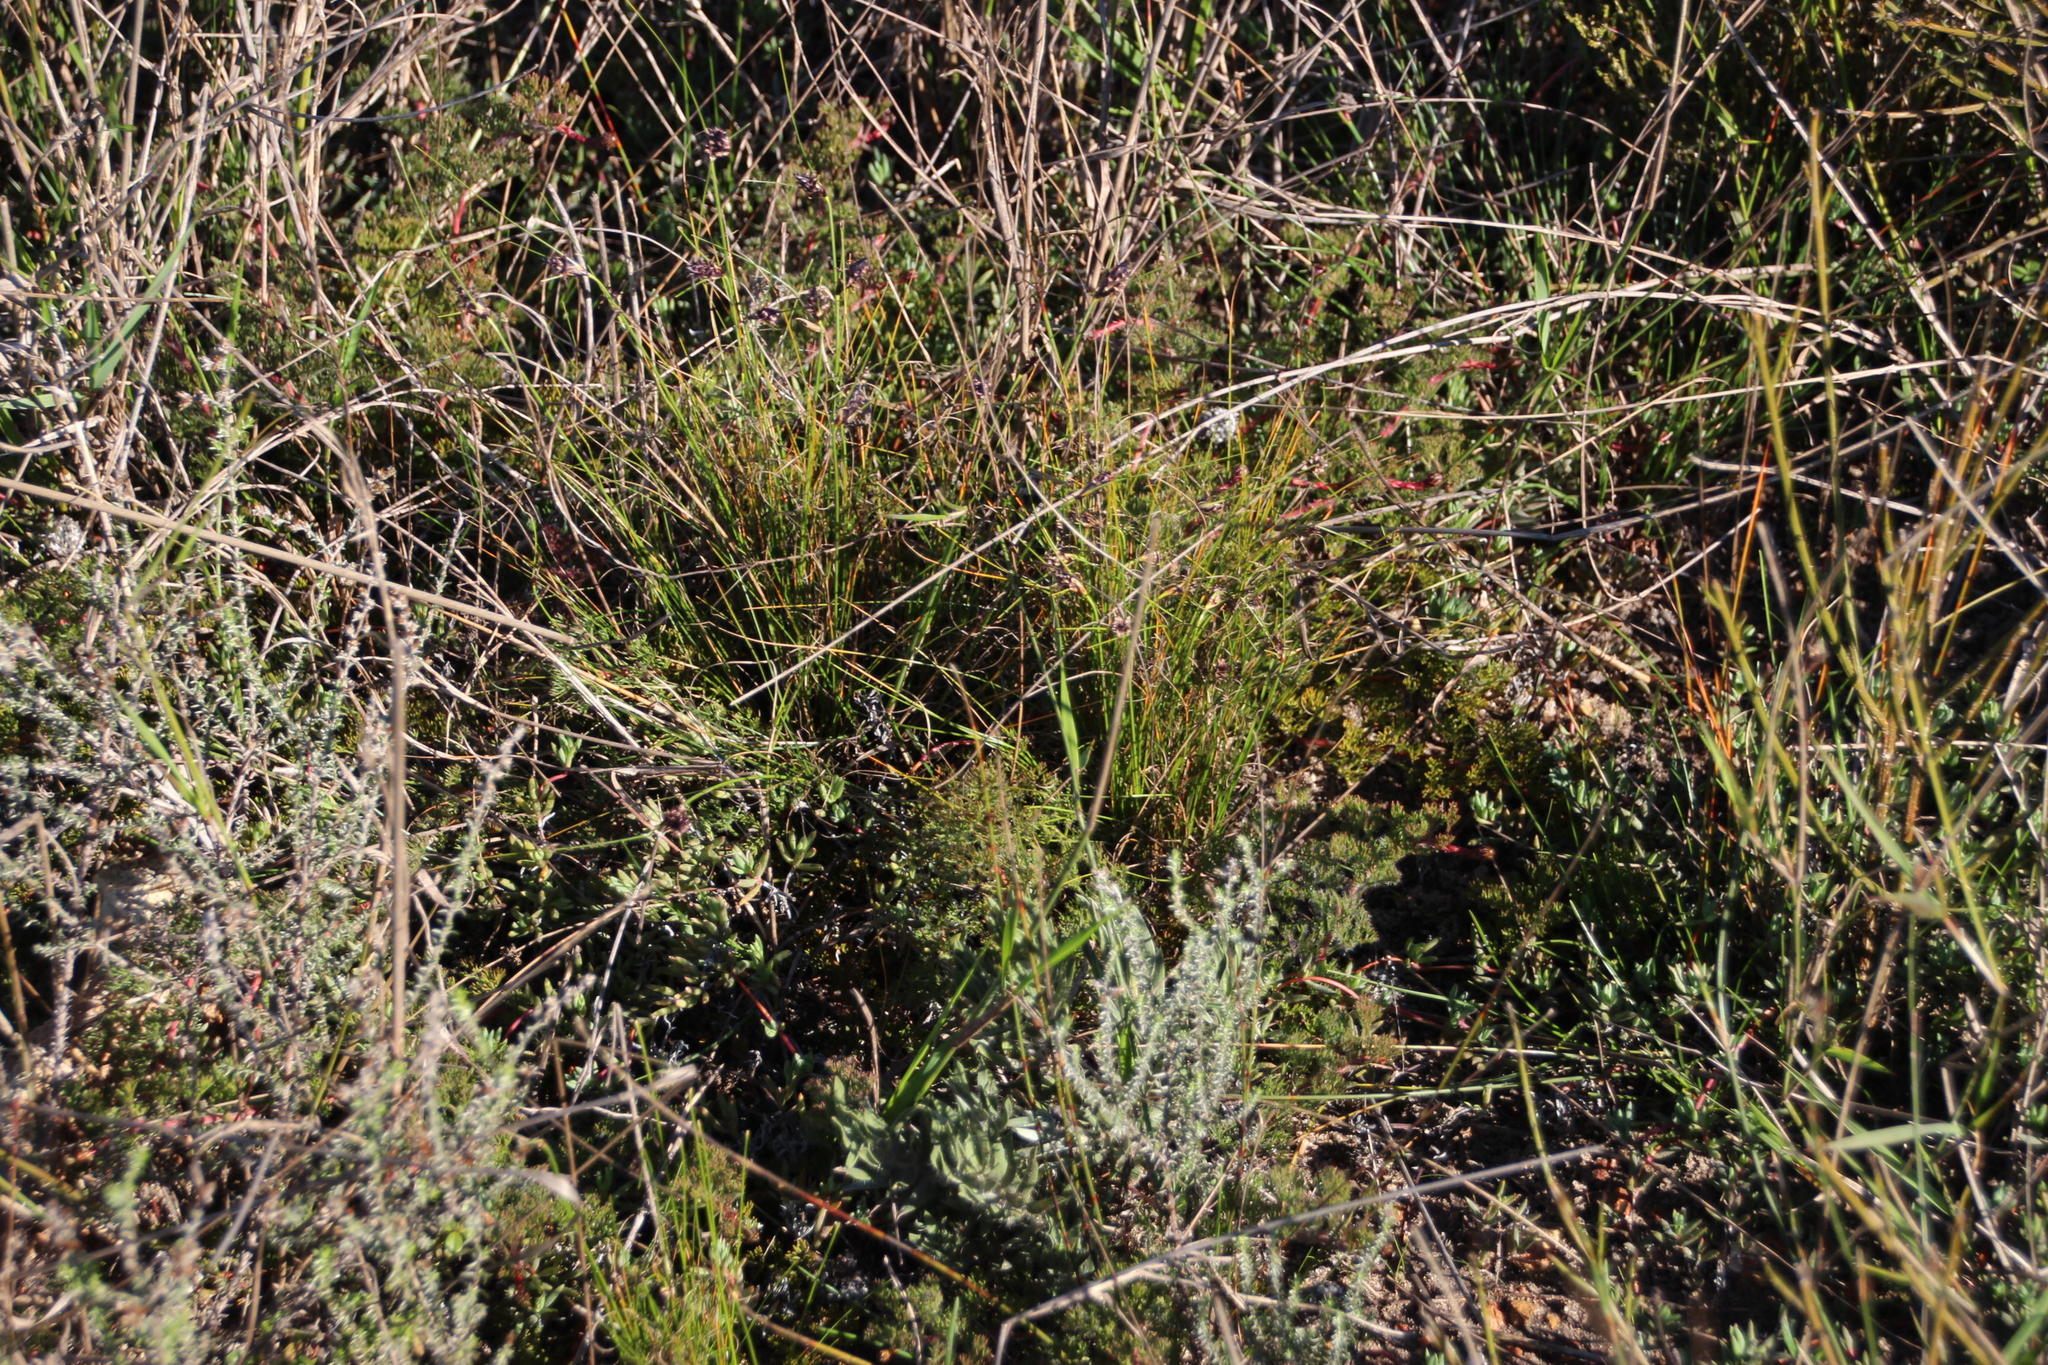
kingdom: Plantae
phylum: Tracheophyta
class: Magnoliopsida
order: Proteales
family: Proteaceae
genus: Serruria
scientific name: Serruria incrassata
